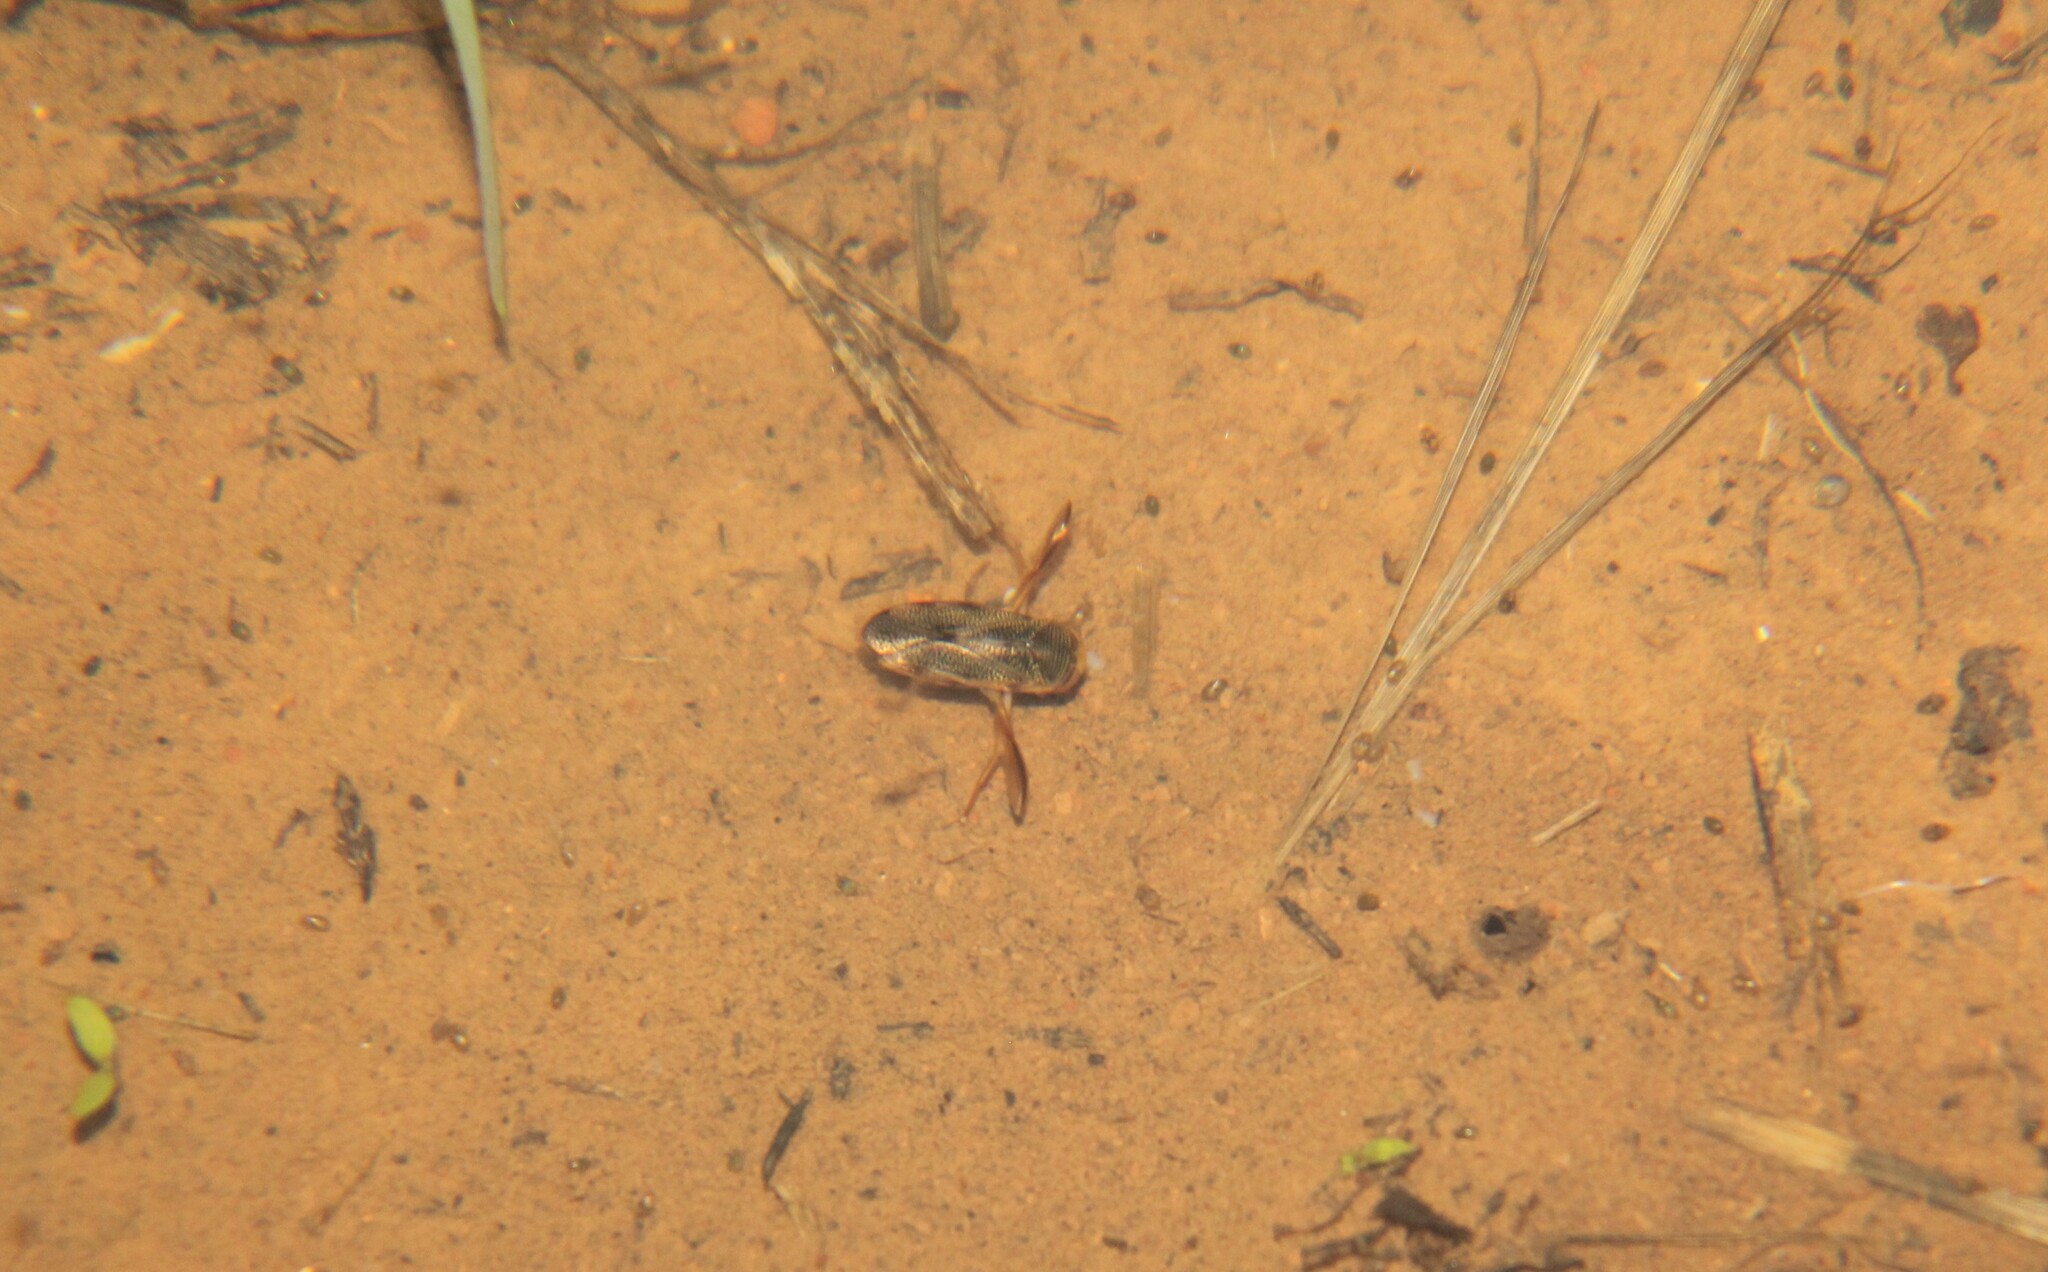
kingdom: Animalia
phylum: Arthropoda
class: Insecta
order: Hemiptera
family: Corixidae
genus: Hesperocorixa
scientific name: Hesperocorixa
